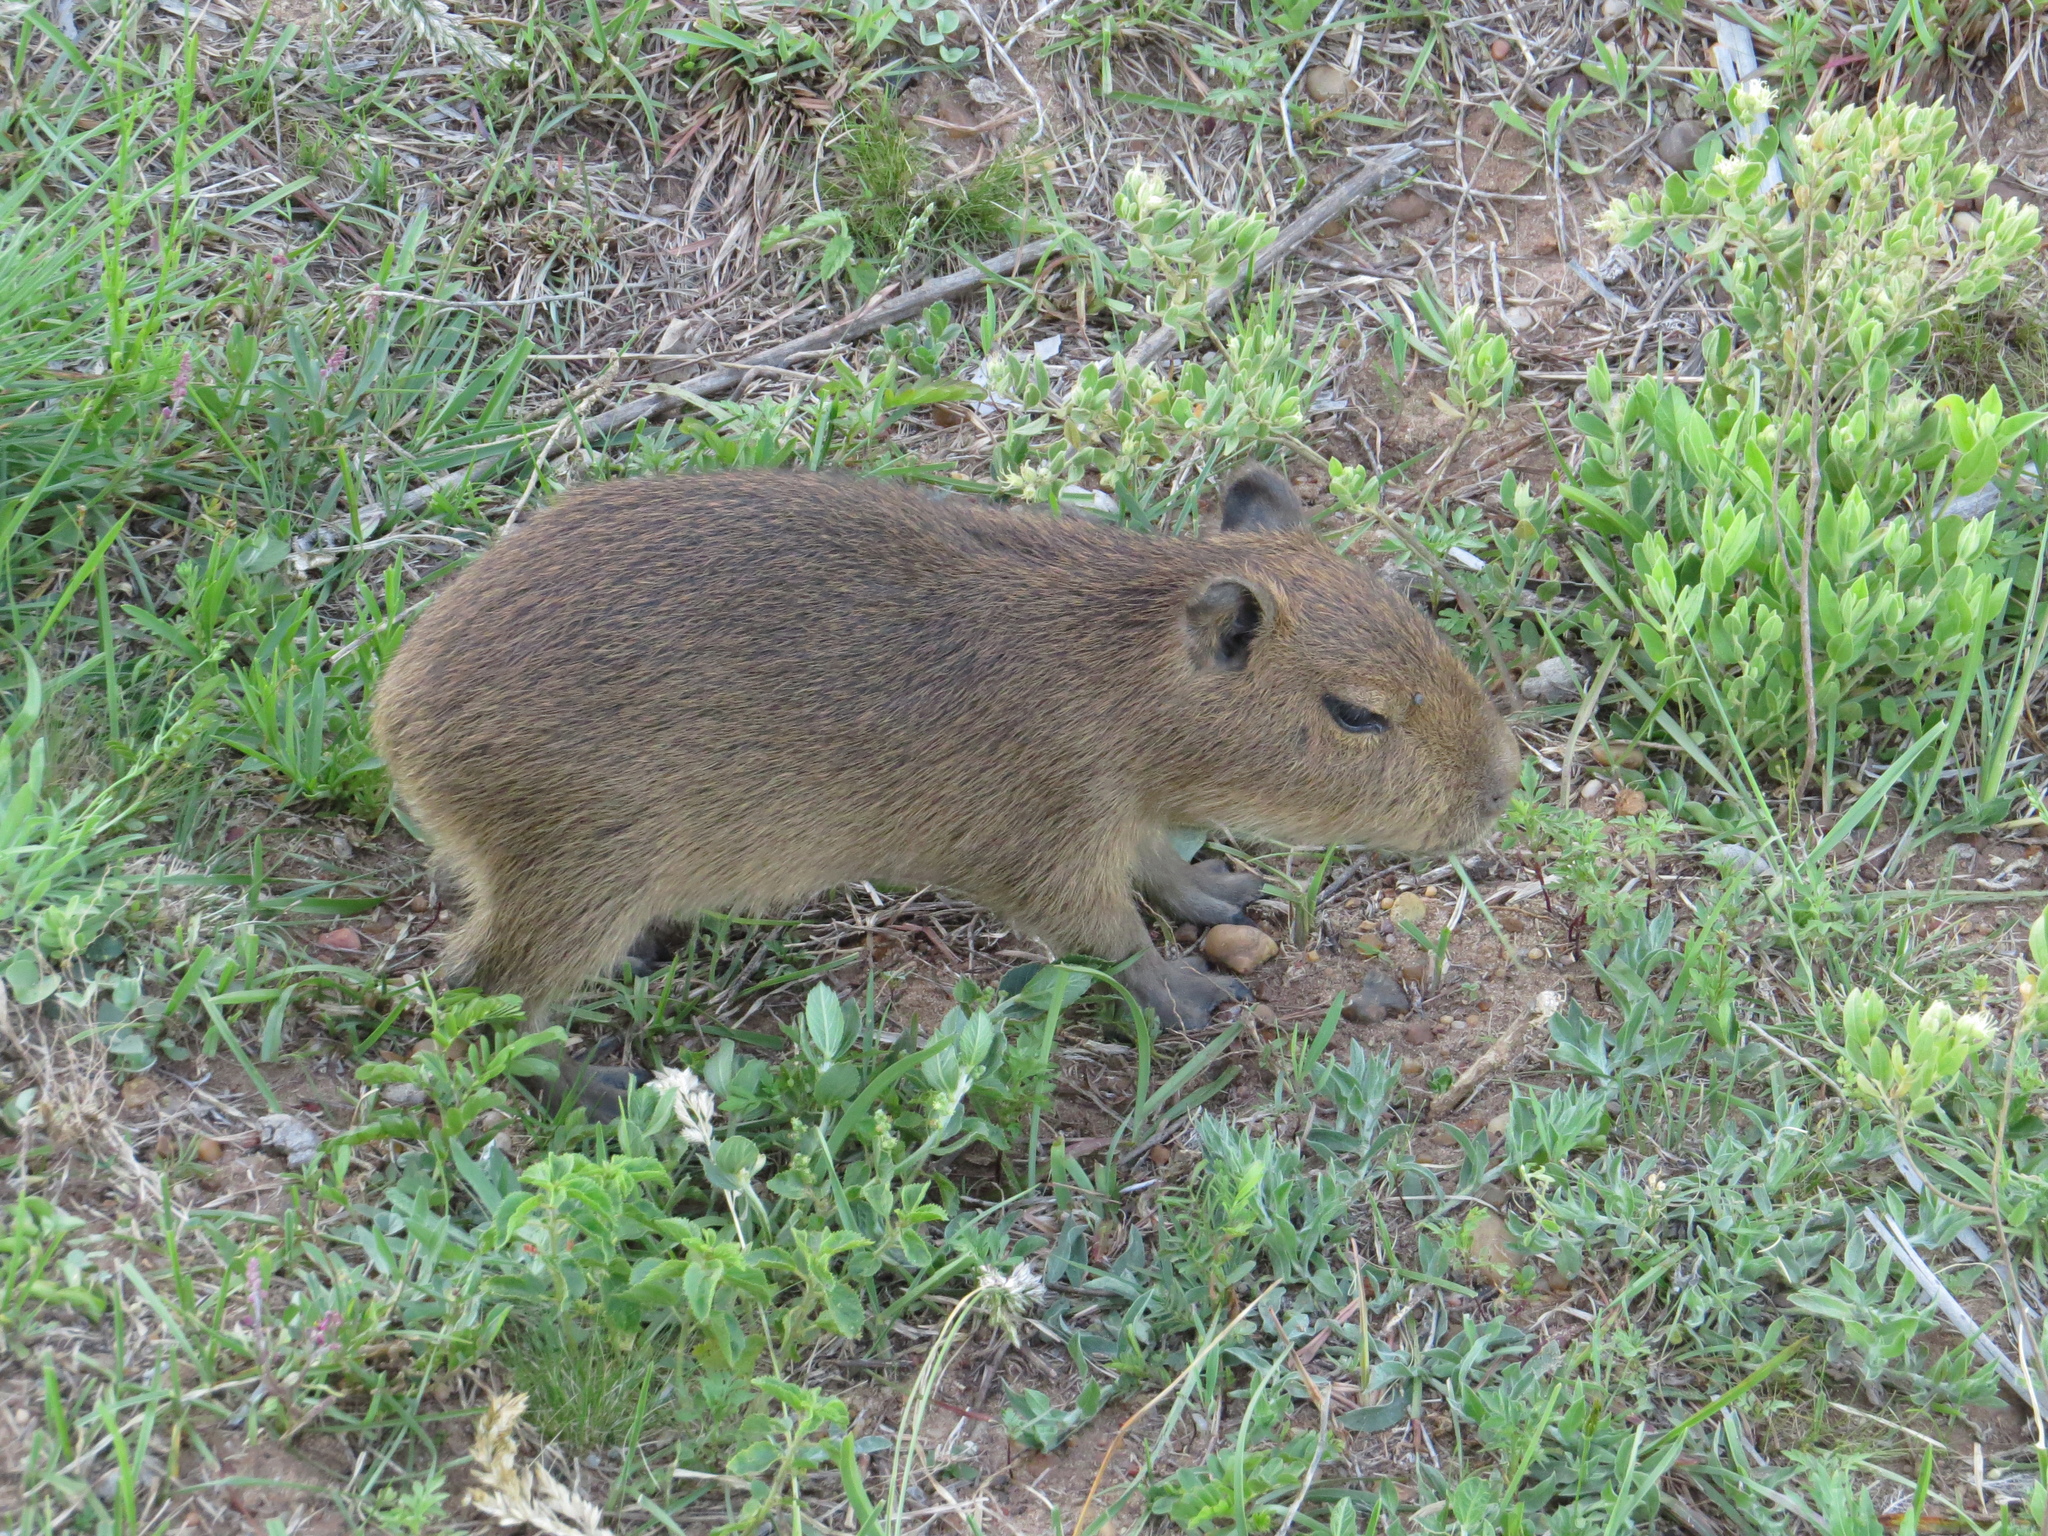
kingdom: Animalia
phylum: Chordata
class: Mammalia
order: Rodentia
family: Caviidae
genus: Hydrochoerus
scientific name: Hydrochoerus hydrochaeris
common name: Capybara
